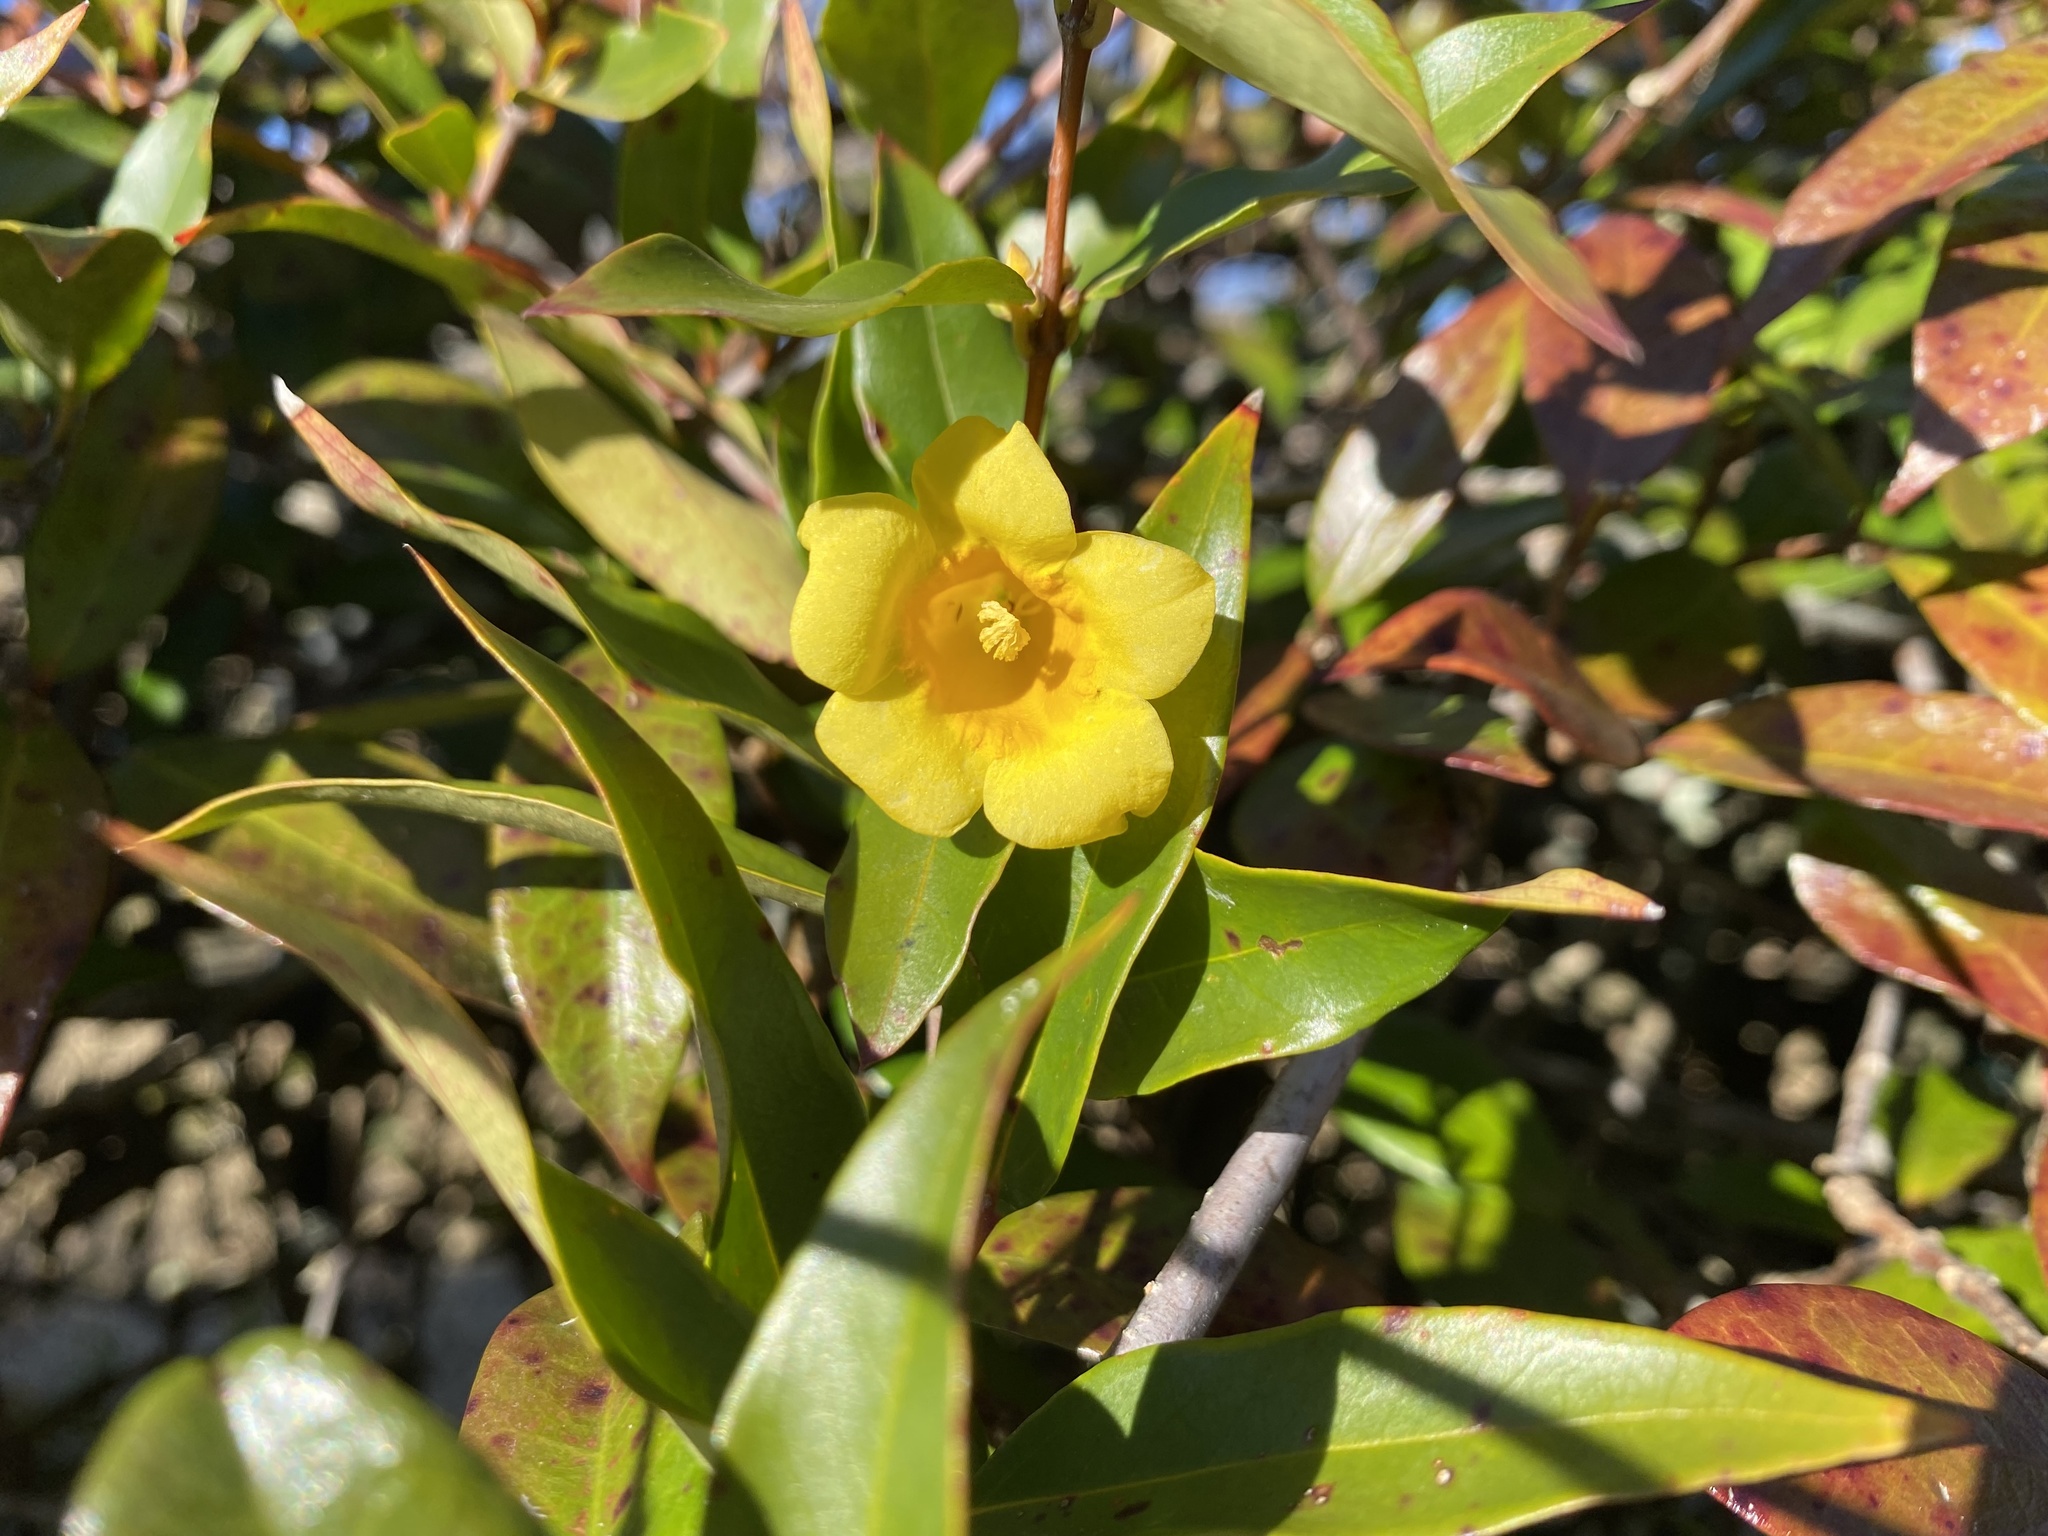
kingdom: Plantae
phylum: Tracheophyta
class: Magnoliopsida
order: Gentianales
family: Gelsemiaceae
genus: Gelsemium
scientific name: Gelsemium sempervirens
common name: Carolina-jasmine
